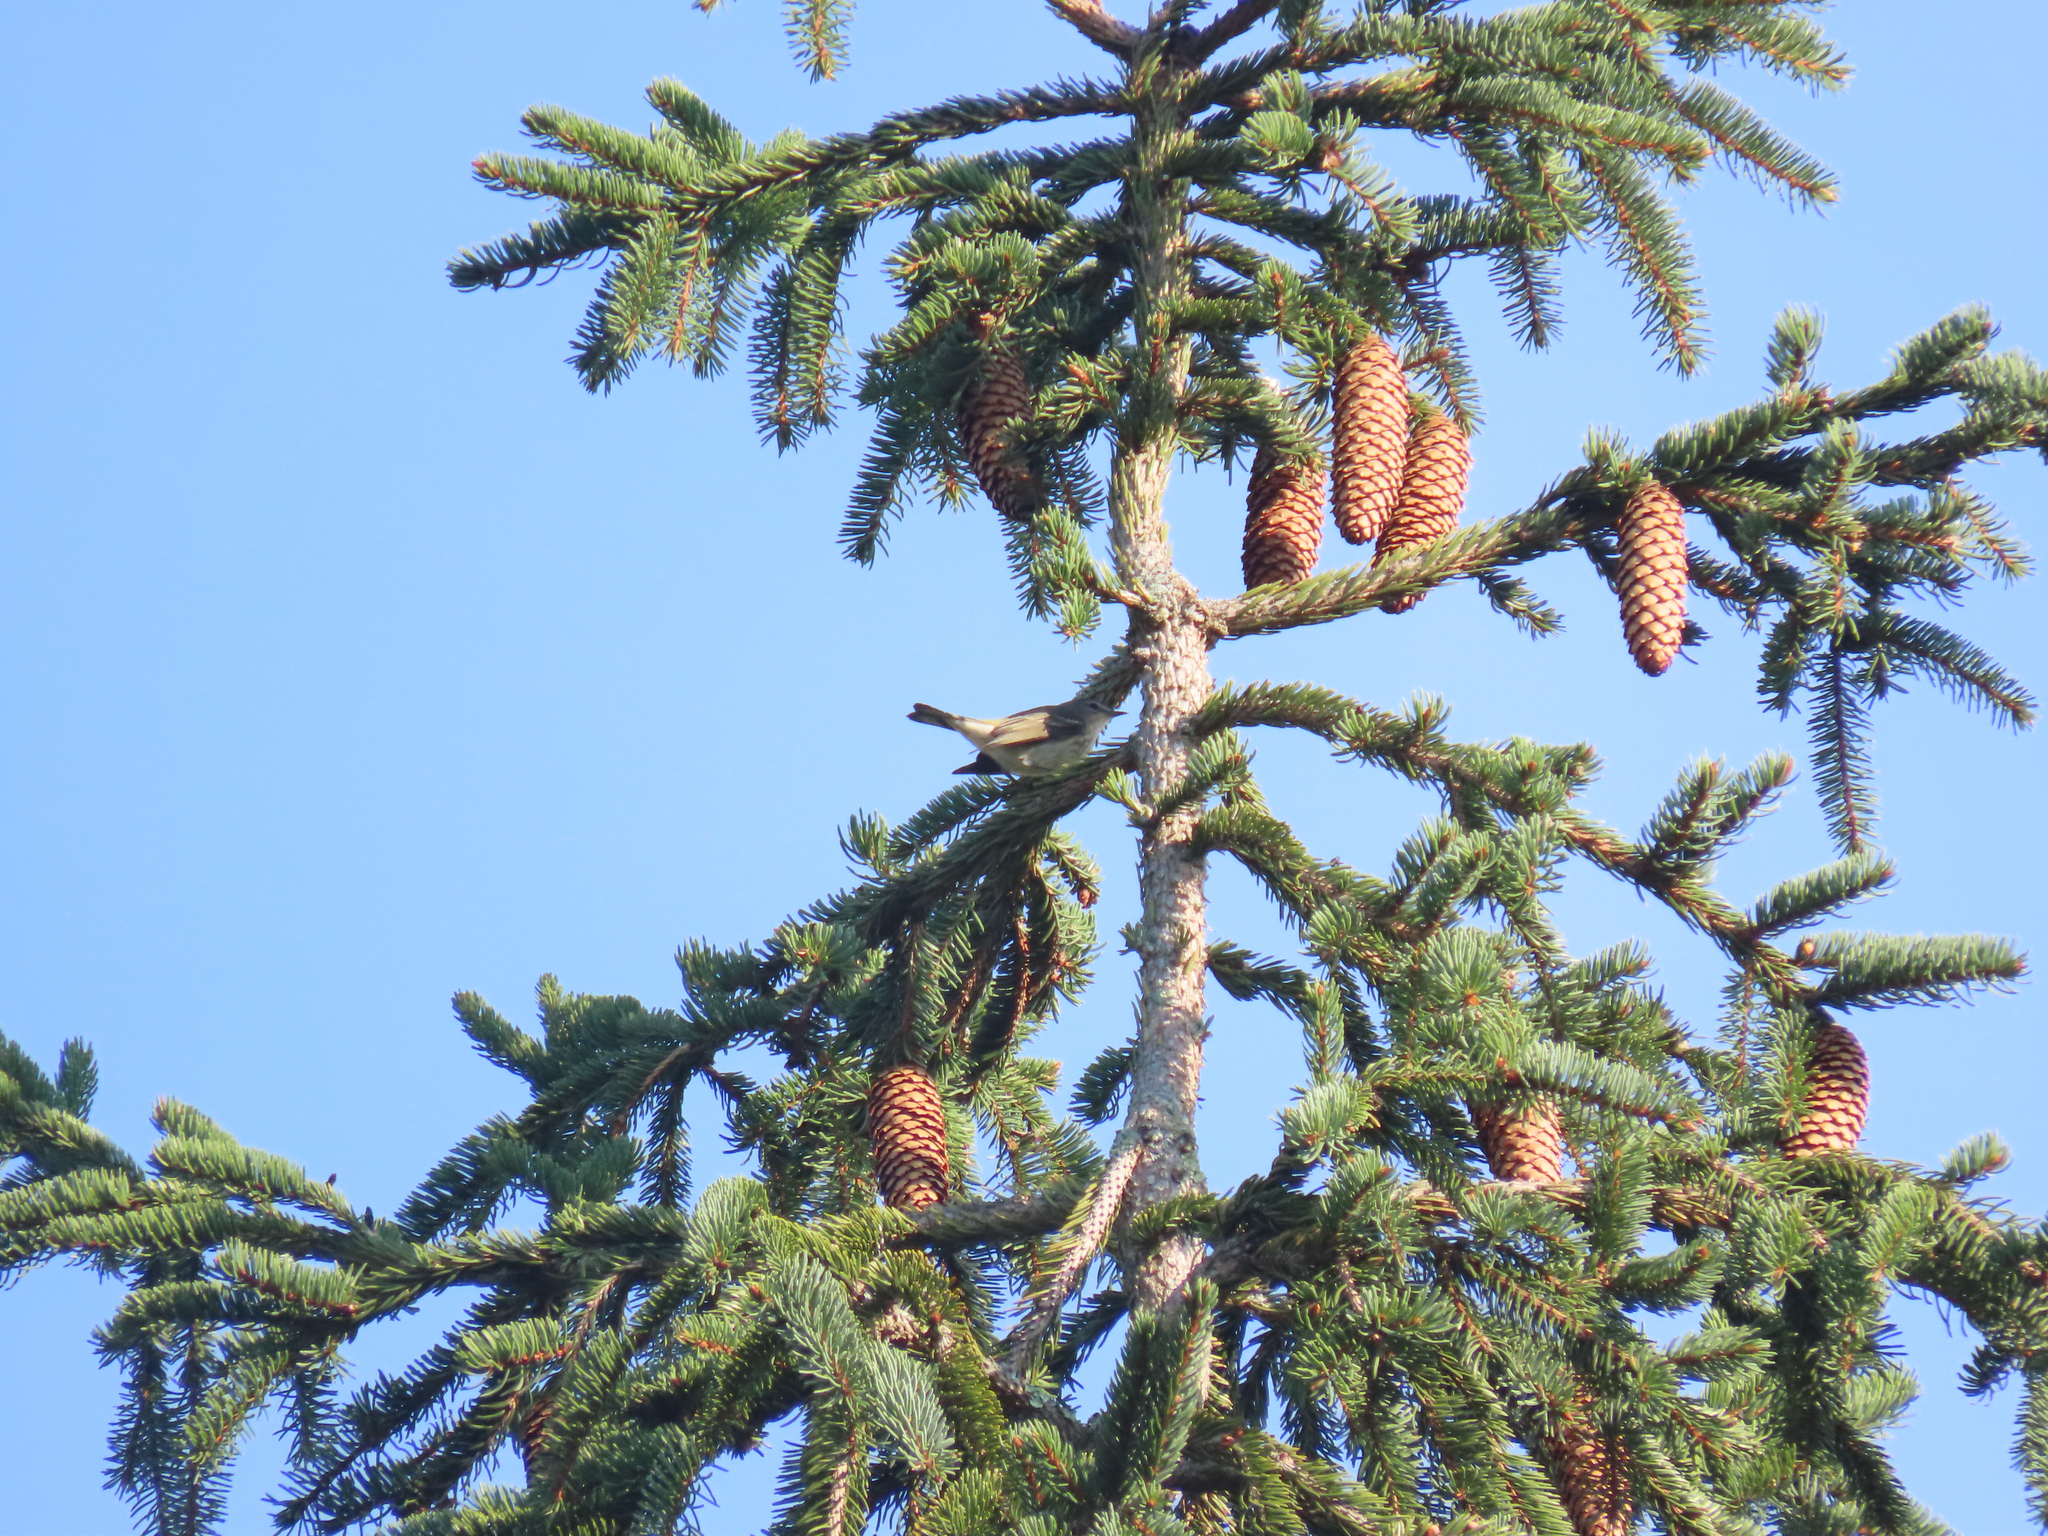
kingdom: Animalia
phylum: Chordata
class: Aves
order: Passeriformes
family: Parulidae
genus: Setophaga
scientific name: Setophaga tigrina
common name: Cape may warbler
